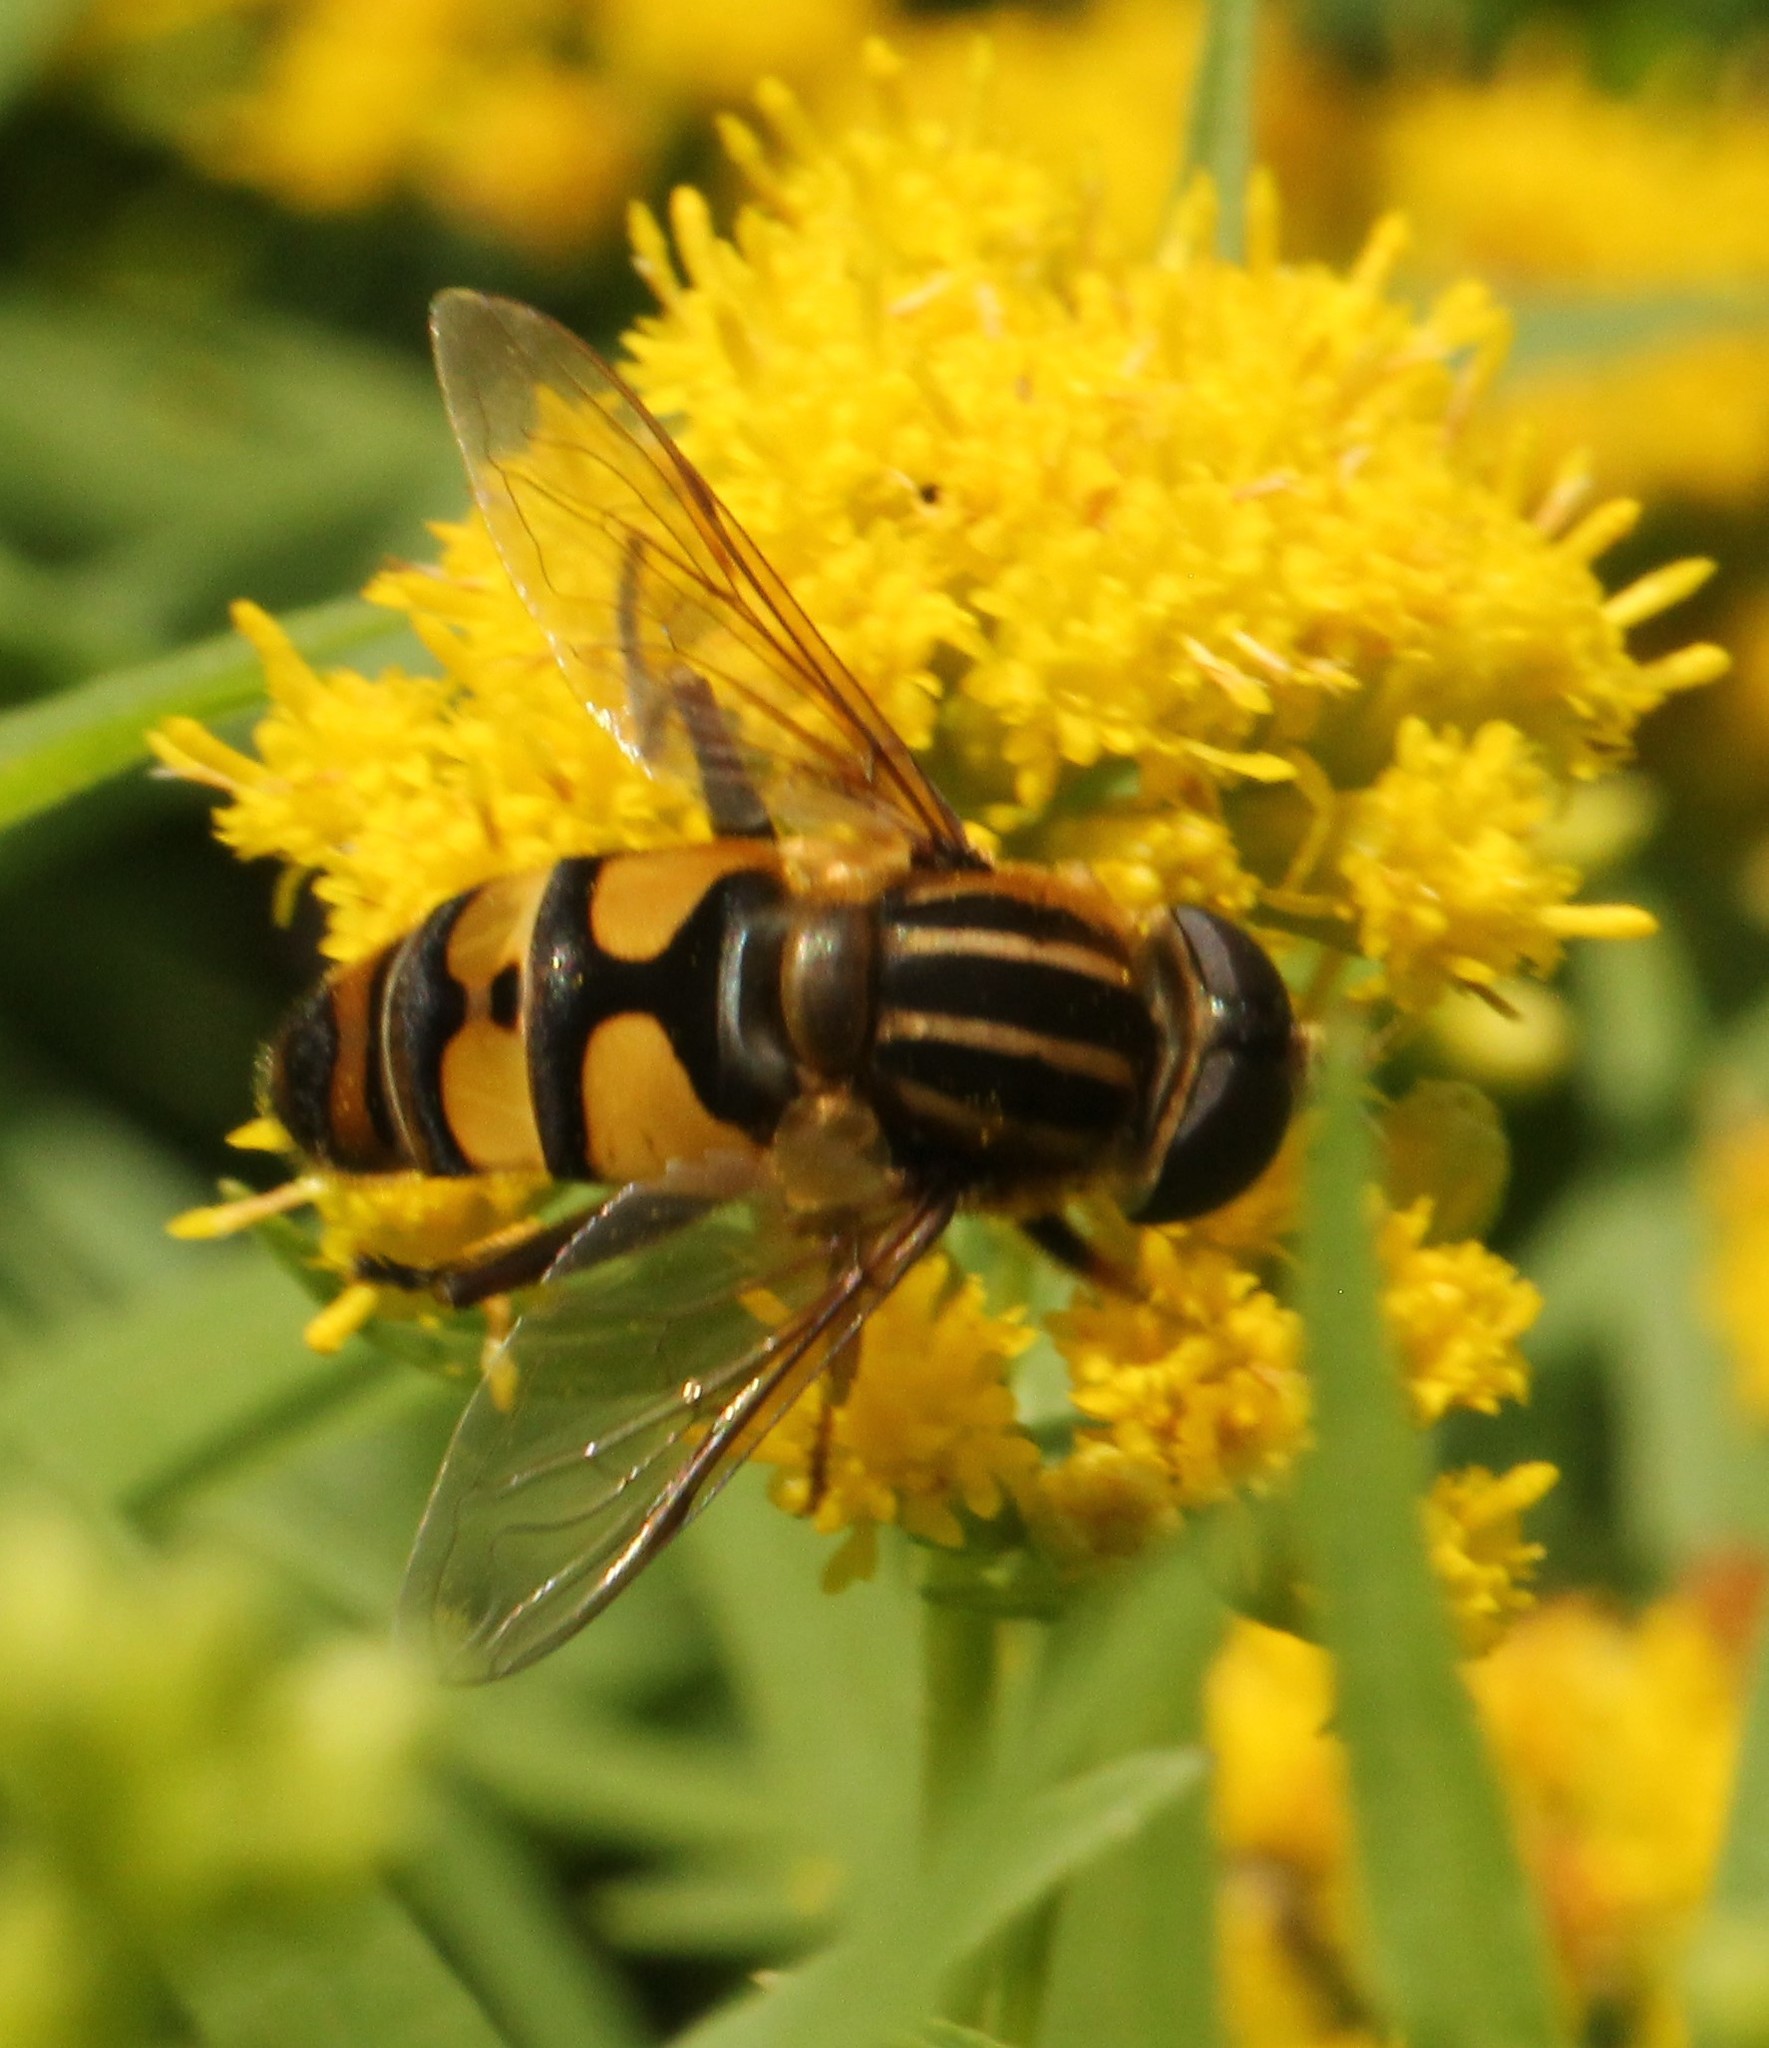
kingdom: Animalia
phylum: Arthropoda
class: Insecta
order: Diptera
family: Syrphidae
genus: Helophilus
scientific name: Helophilus fasciatus
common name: Narrow-headed marsh fly
